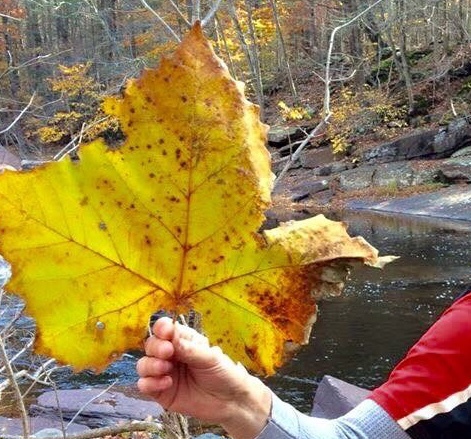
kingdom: Plantae
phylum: Tracheophyta
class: Magnoliopsida
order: Proteales
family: Platanaceae
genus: Platanus
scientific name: Platanus occidentalis
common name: American sycamore
